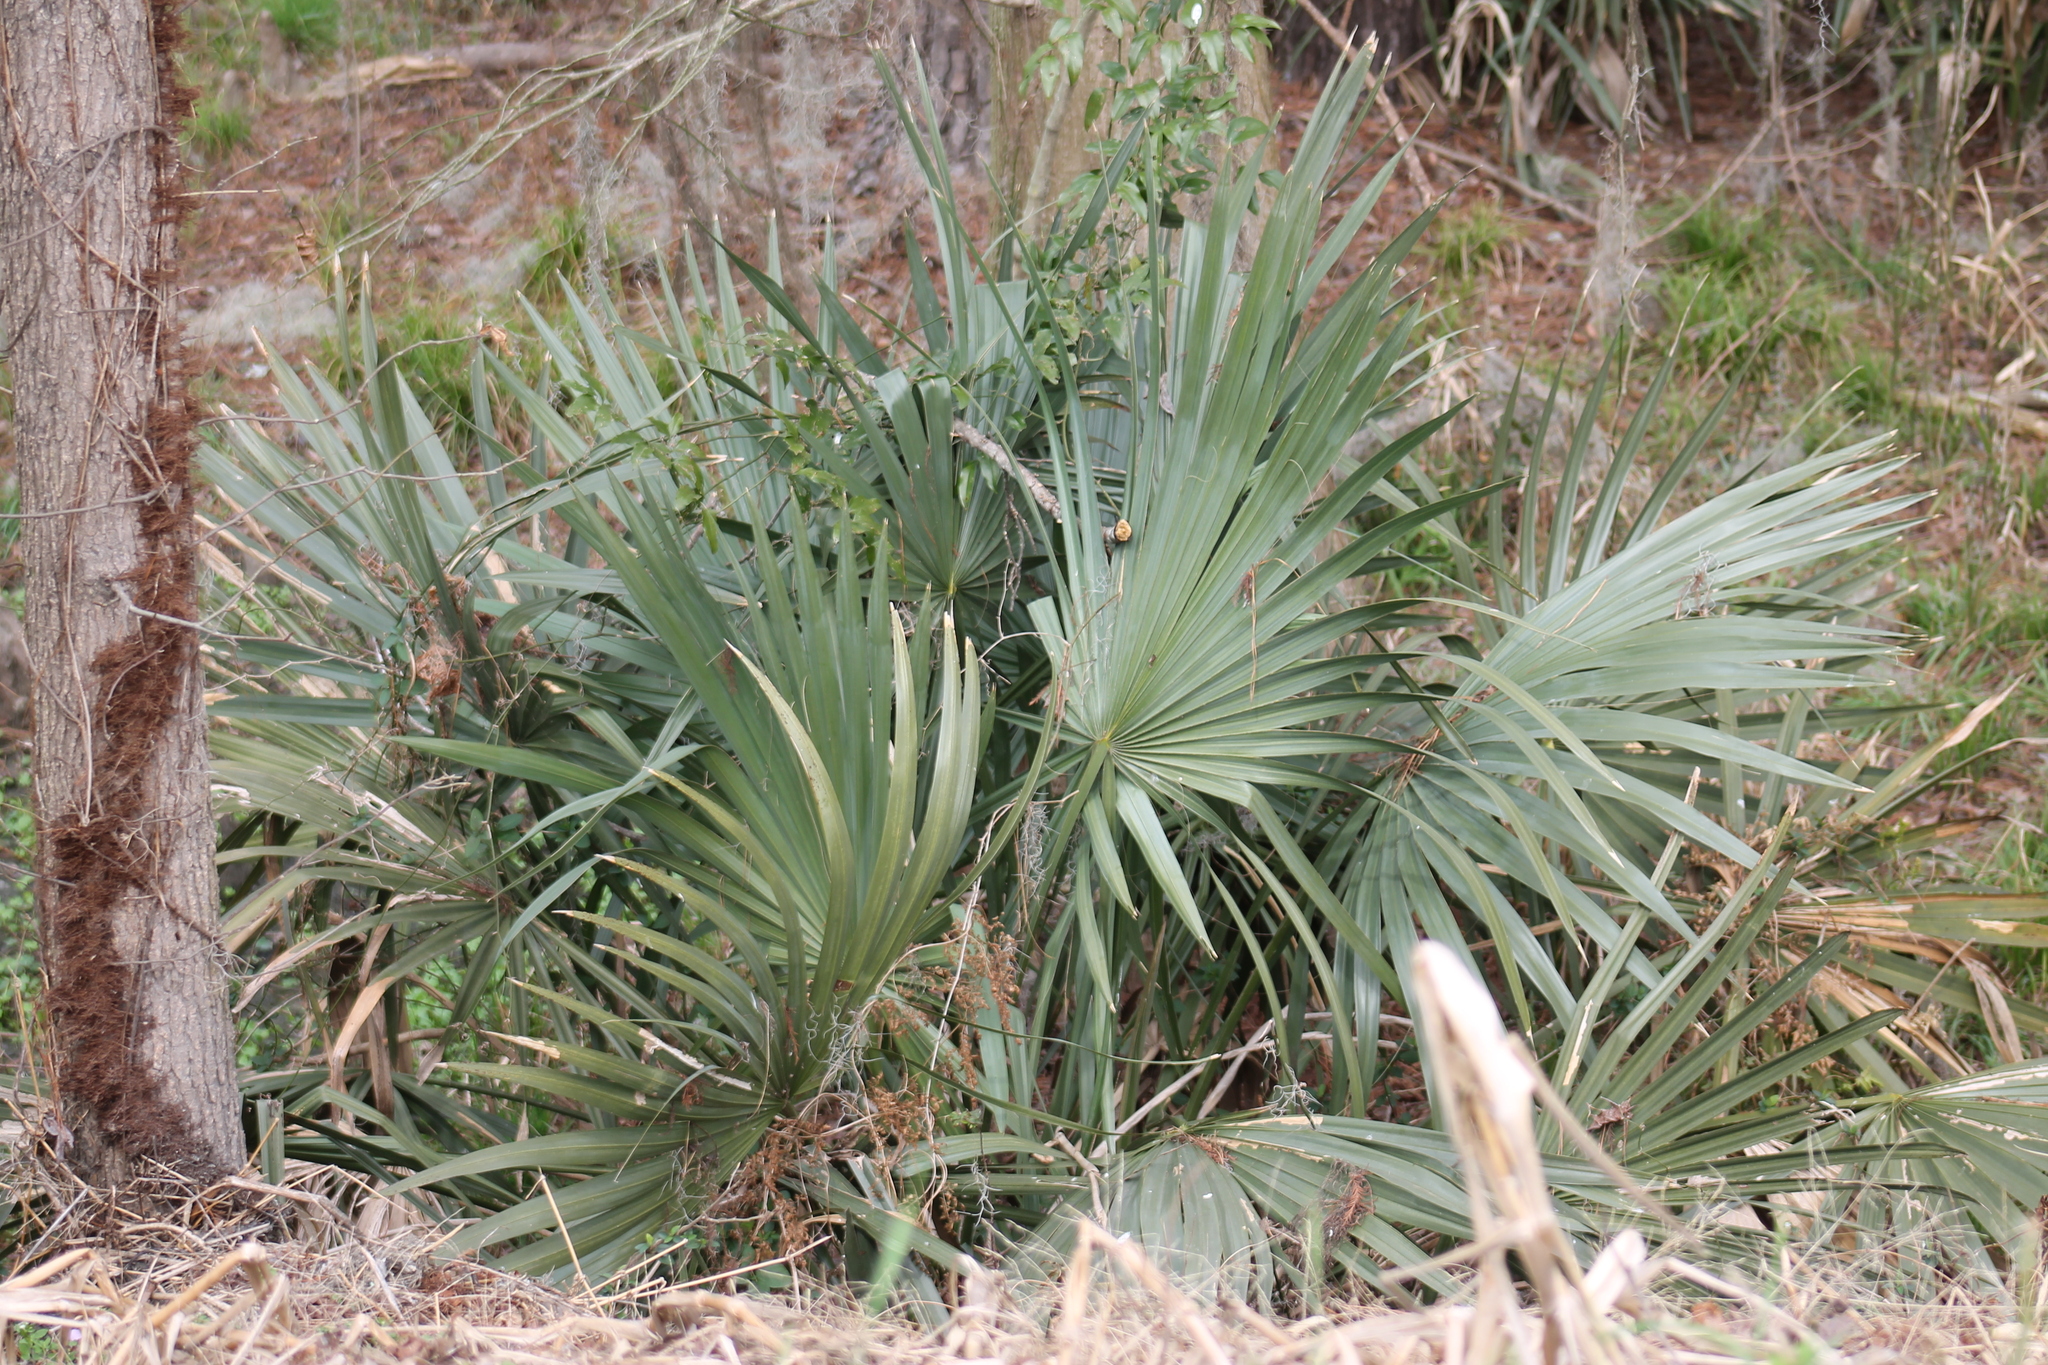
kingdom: Plantae
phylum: Tracheophyta
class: Liliopsida
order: Arecales
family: Arecaceae
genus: Sabal
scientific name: Sabal minor
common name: Dwarf palmetto
